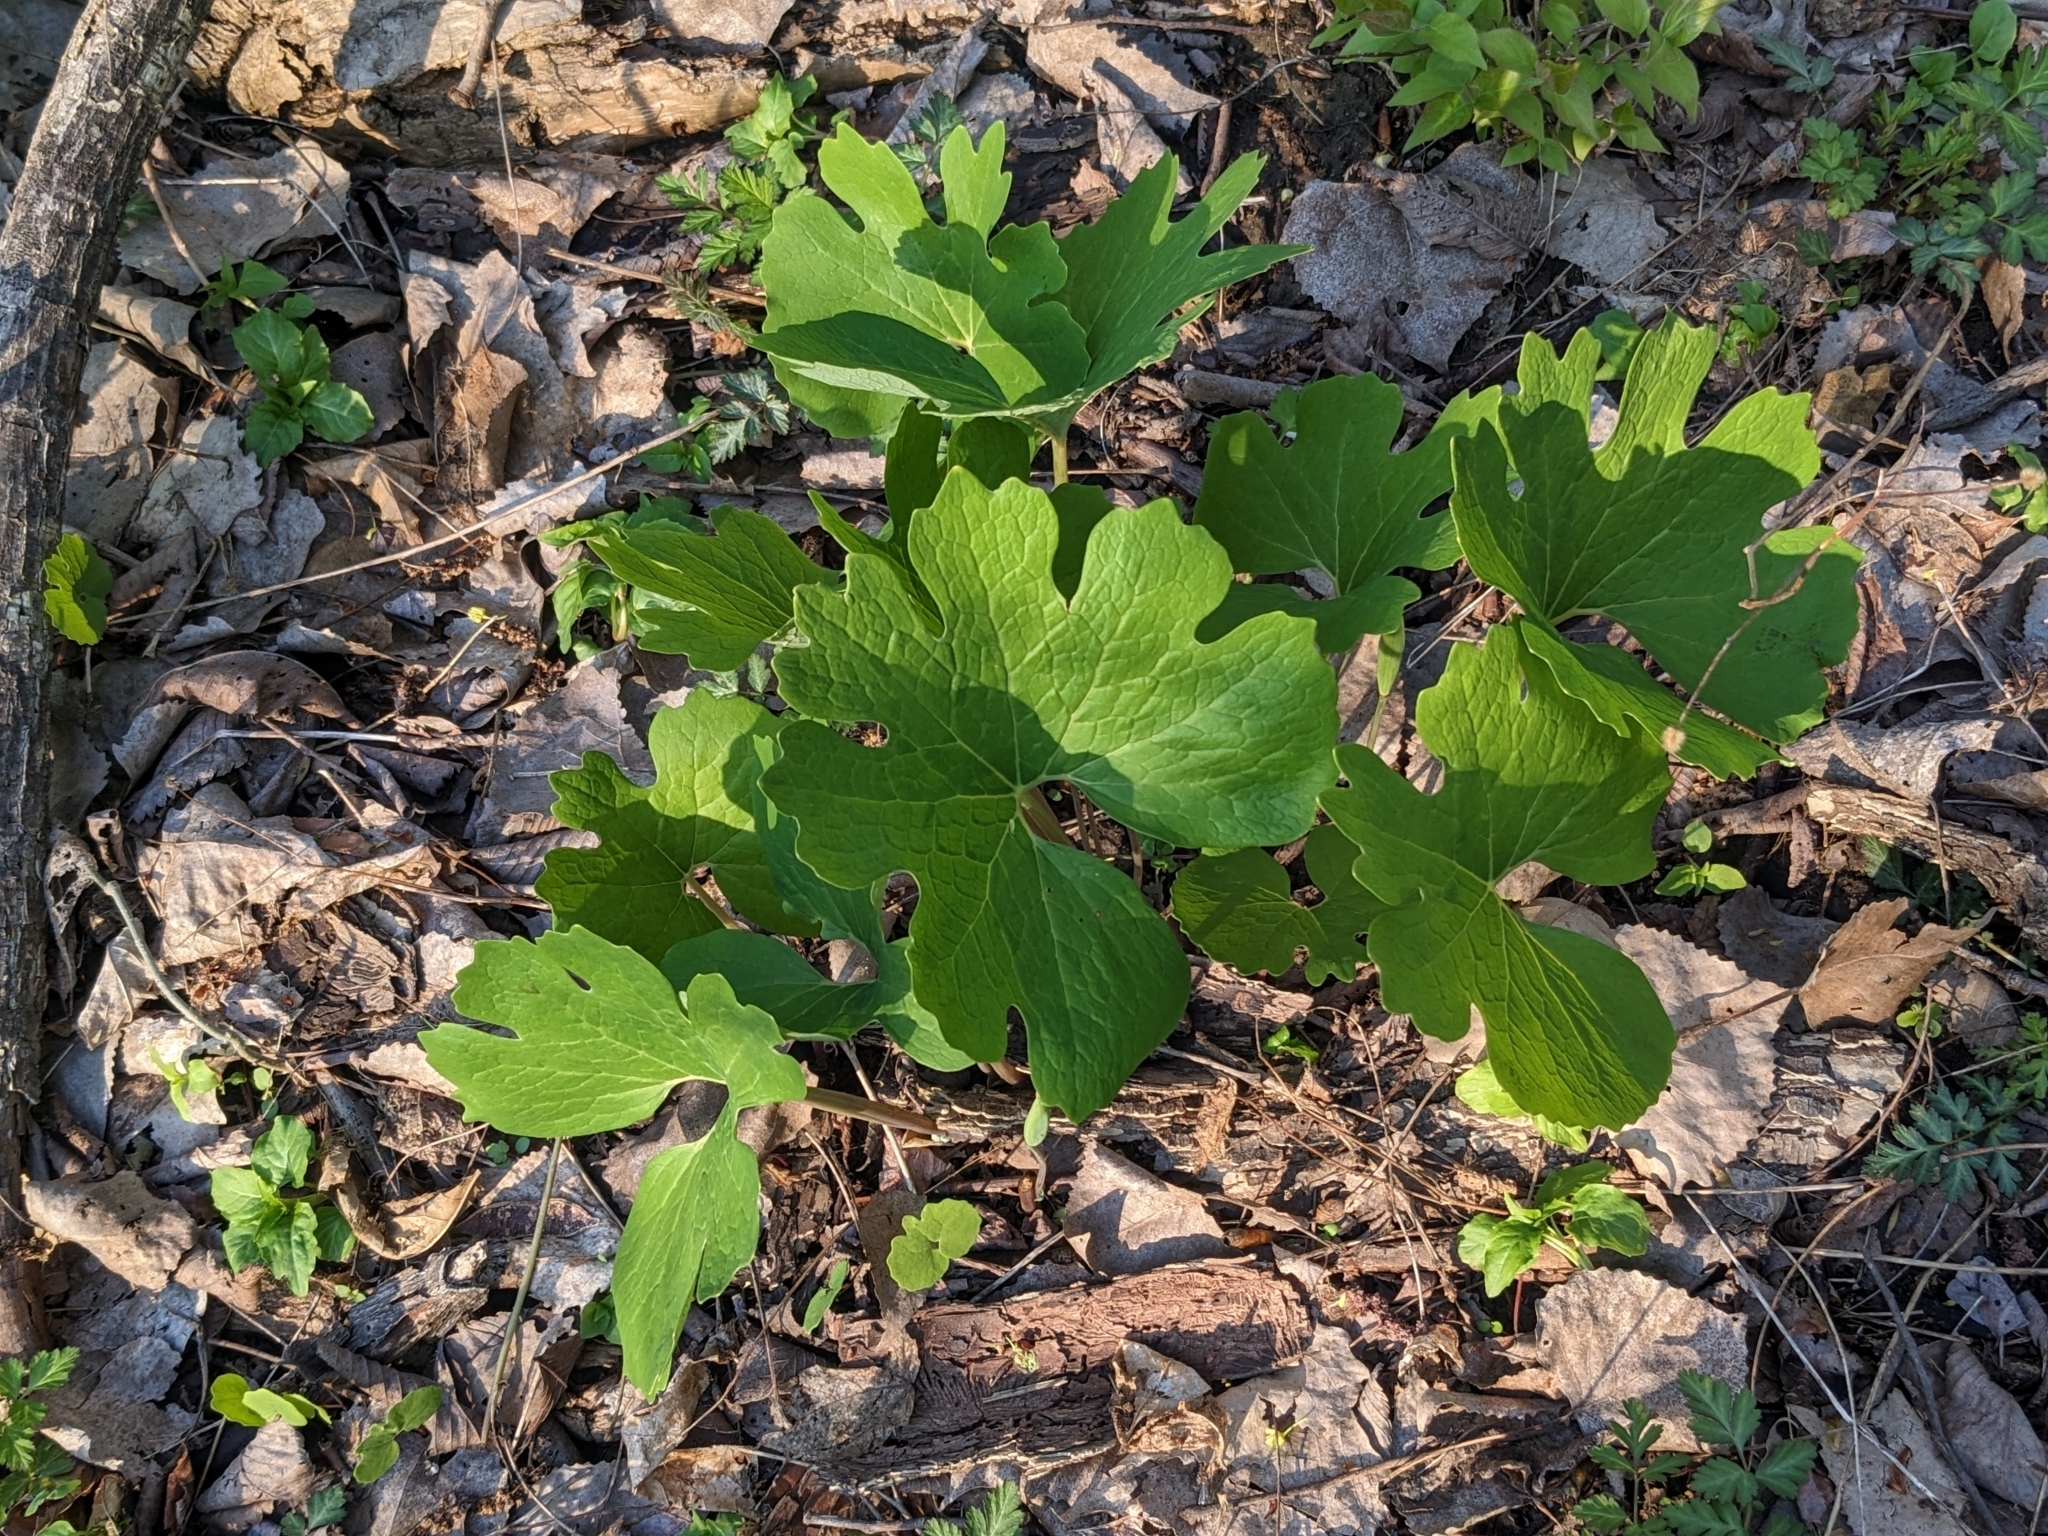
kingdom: Plantae
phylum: Tracheophyta
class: Magnoliopsida
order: Ranunculales
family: Papaveraceae
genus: Sanguinaria
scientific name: Sanguinaria canadensis
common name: Bloodroot
